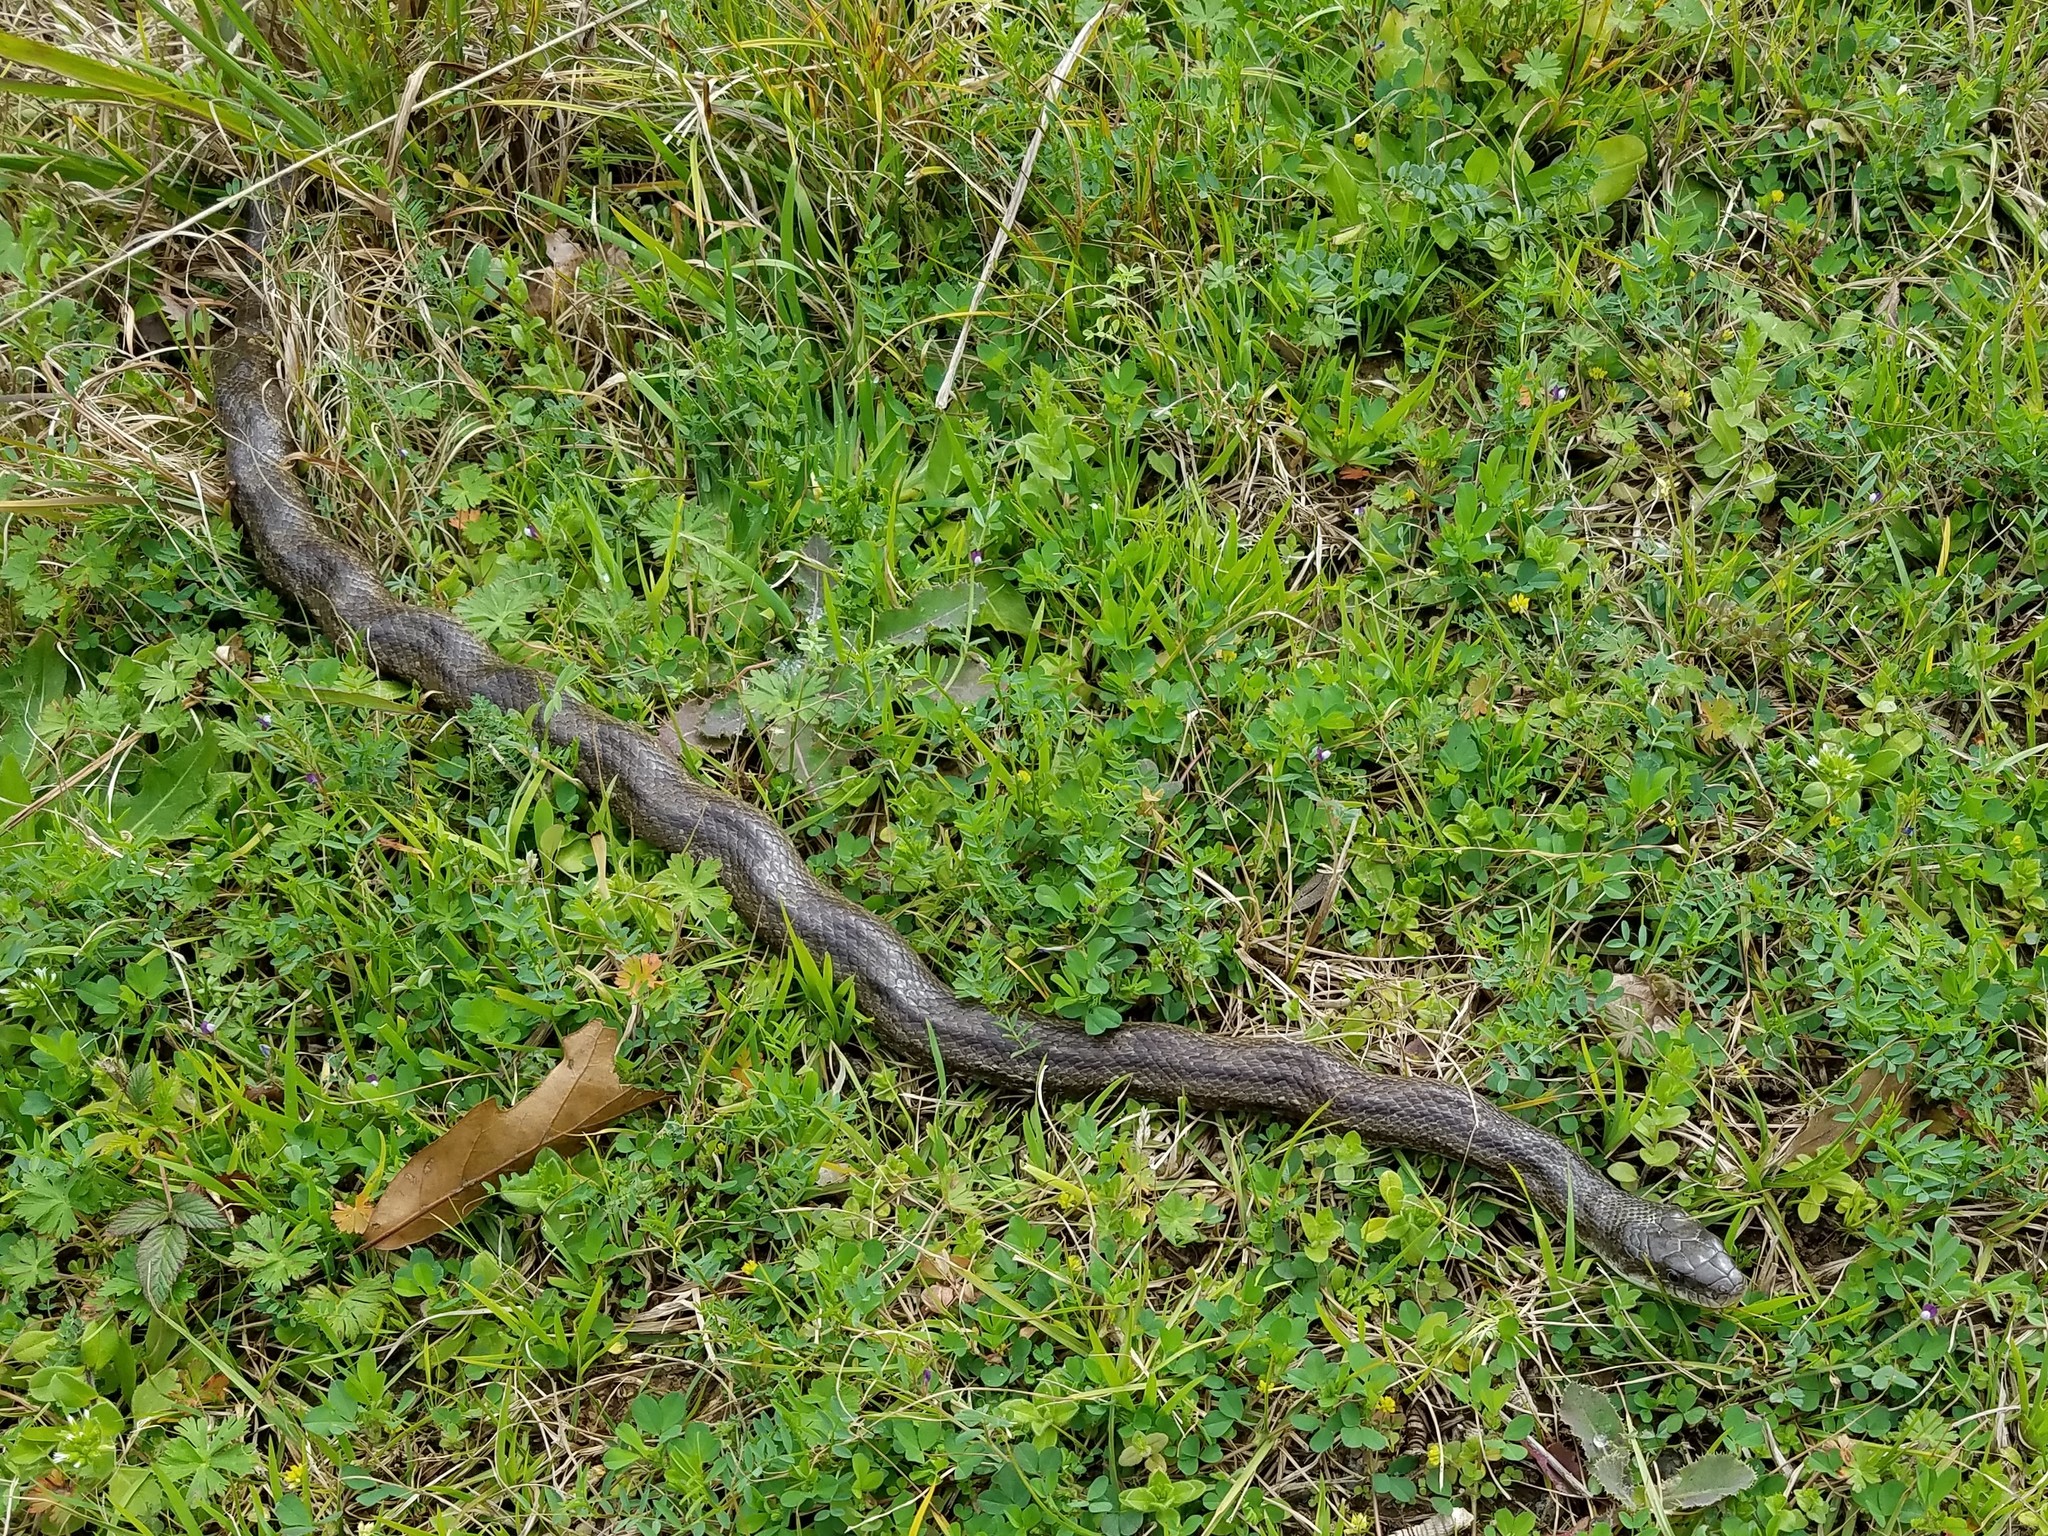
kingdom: Animalia
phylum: Chordata
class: Squamata
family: Colubridae
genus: Pantherophis
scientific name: Pantherophis alleghaniensis
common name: Eastern rat snake
